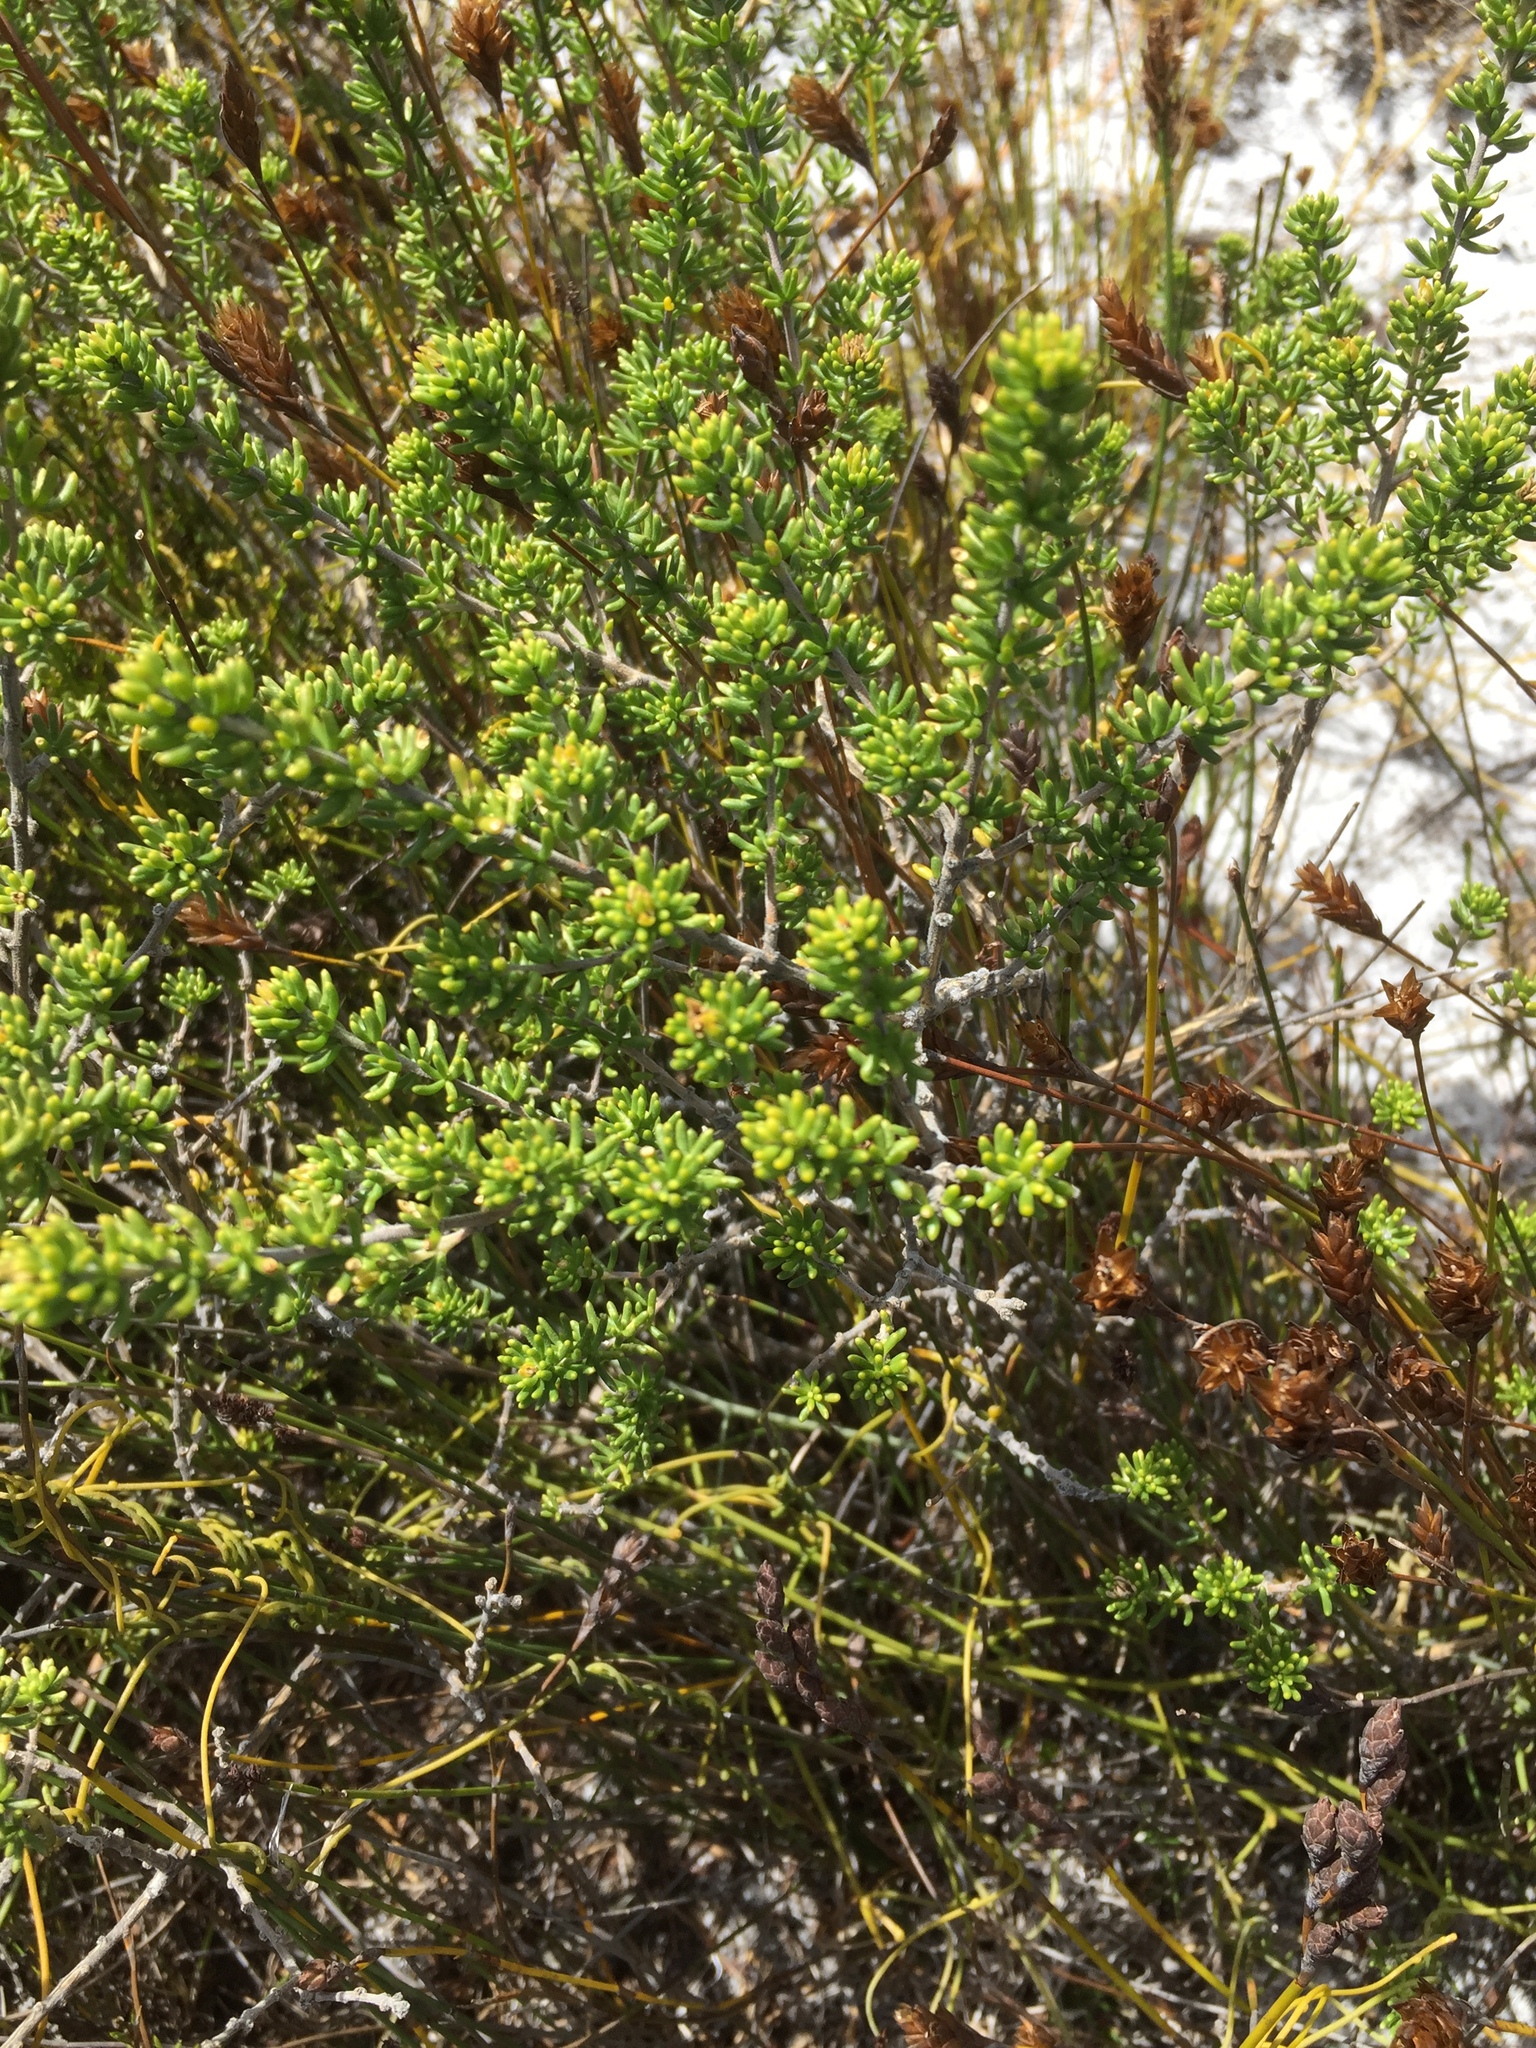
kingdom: Plantae
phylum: Tracheophyta
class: Magnoliopsida
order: Fabales
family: Fabaceae
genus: Aspalathus
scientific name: Aspalathus carnosa
